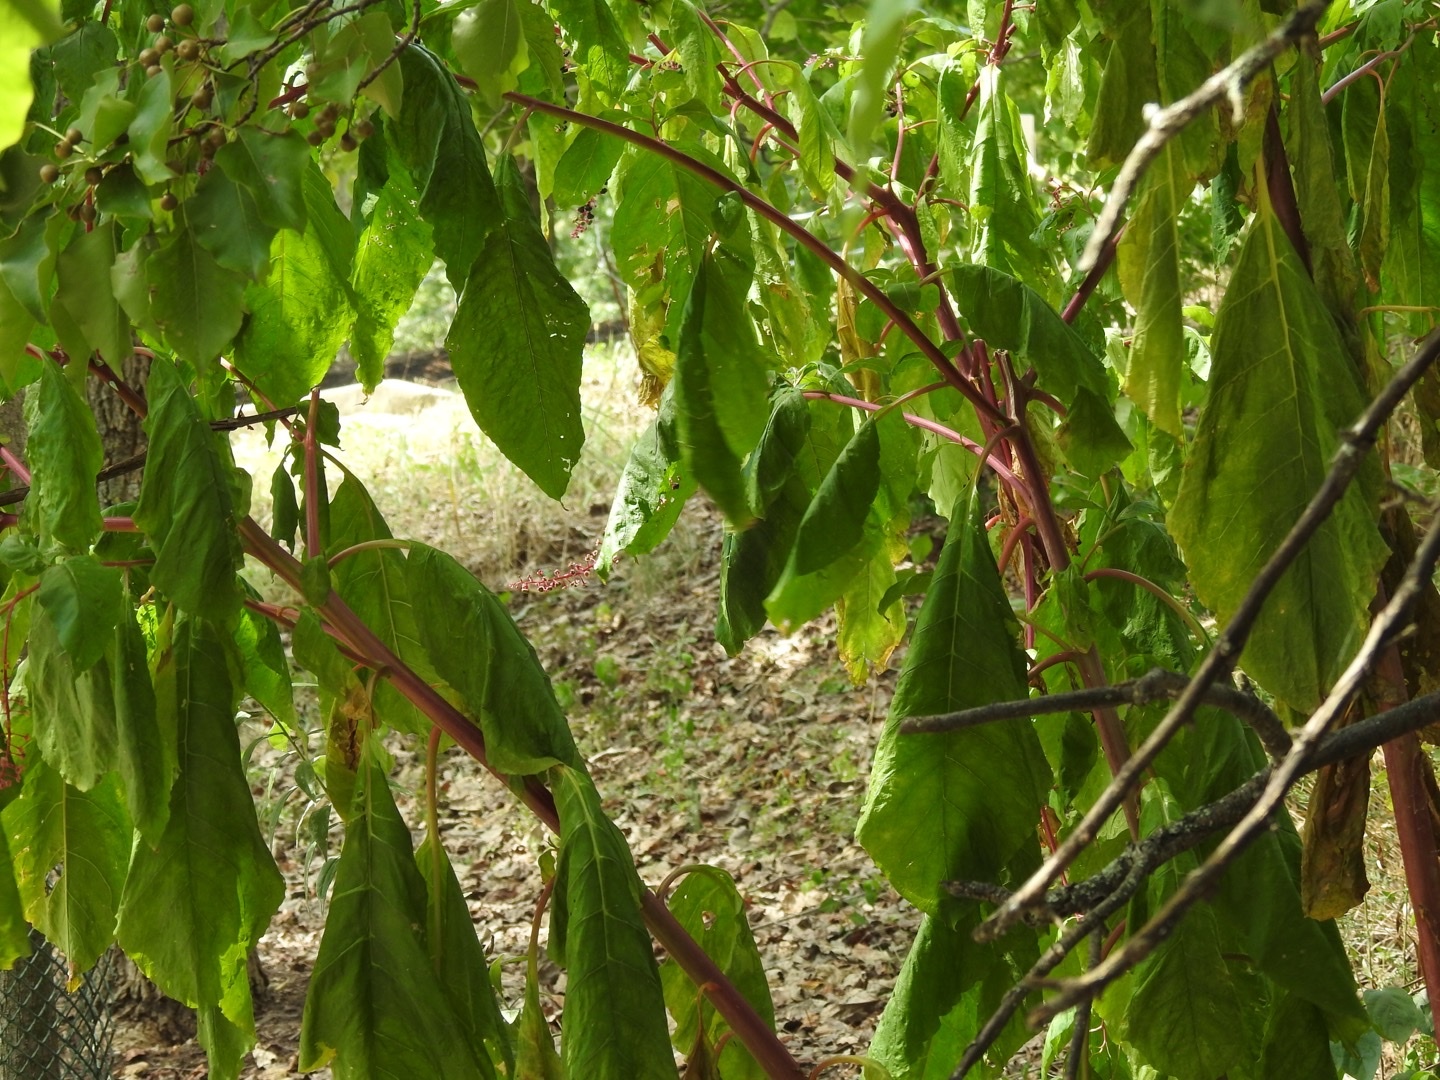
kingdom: Plantae
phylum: Tracheophyta
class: Magnoliopsida
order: Sapindales
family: Sapindaceae
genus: Acer
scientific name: Acer negundo
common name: Ashleaf maple
